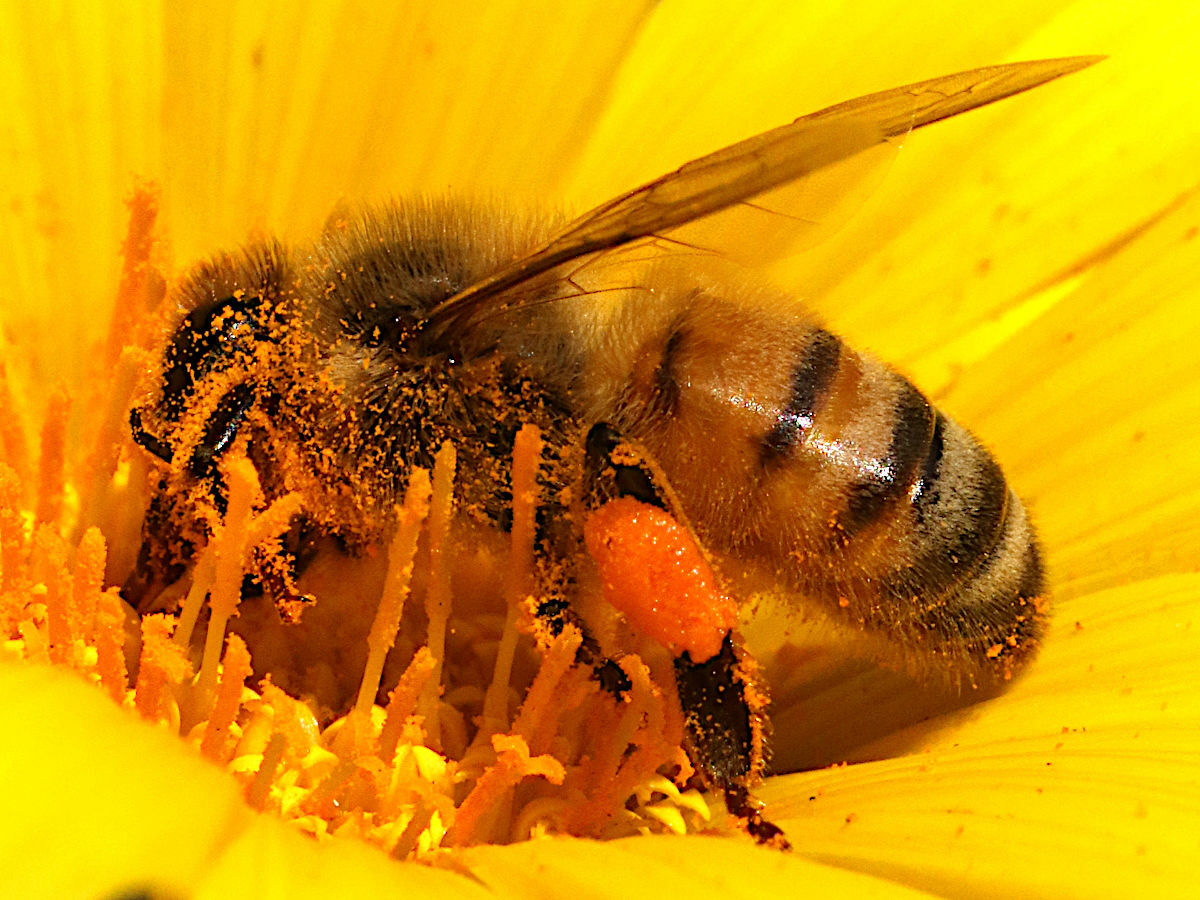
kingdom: Animalia
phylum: Arthropoda
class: Insecta
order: Hymenoptera
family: Apidae
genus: Apis
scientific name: Apis mellifera
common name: Honey bee
